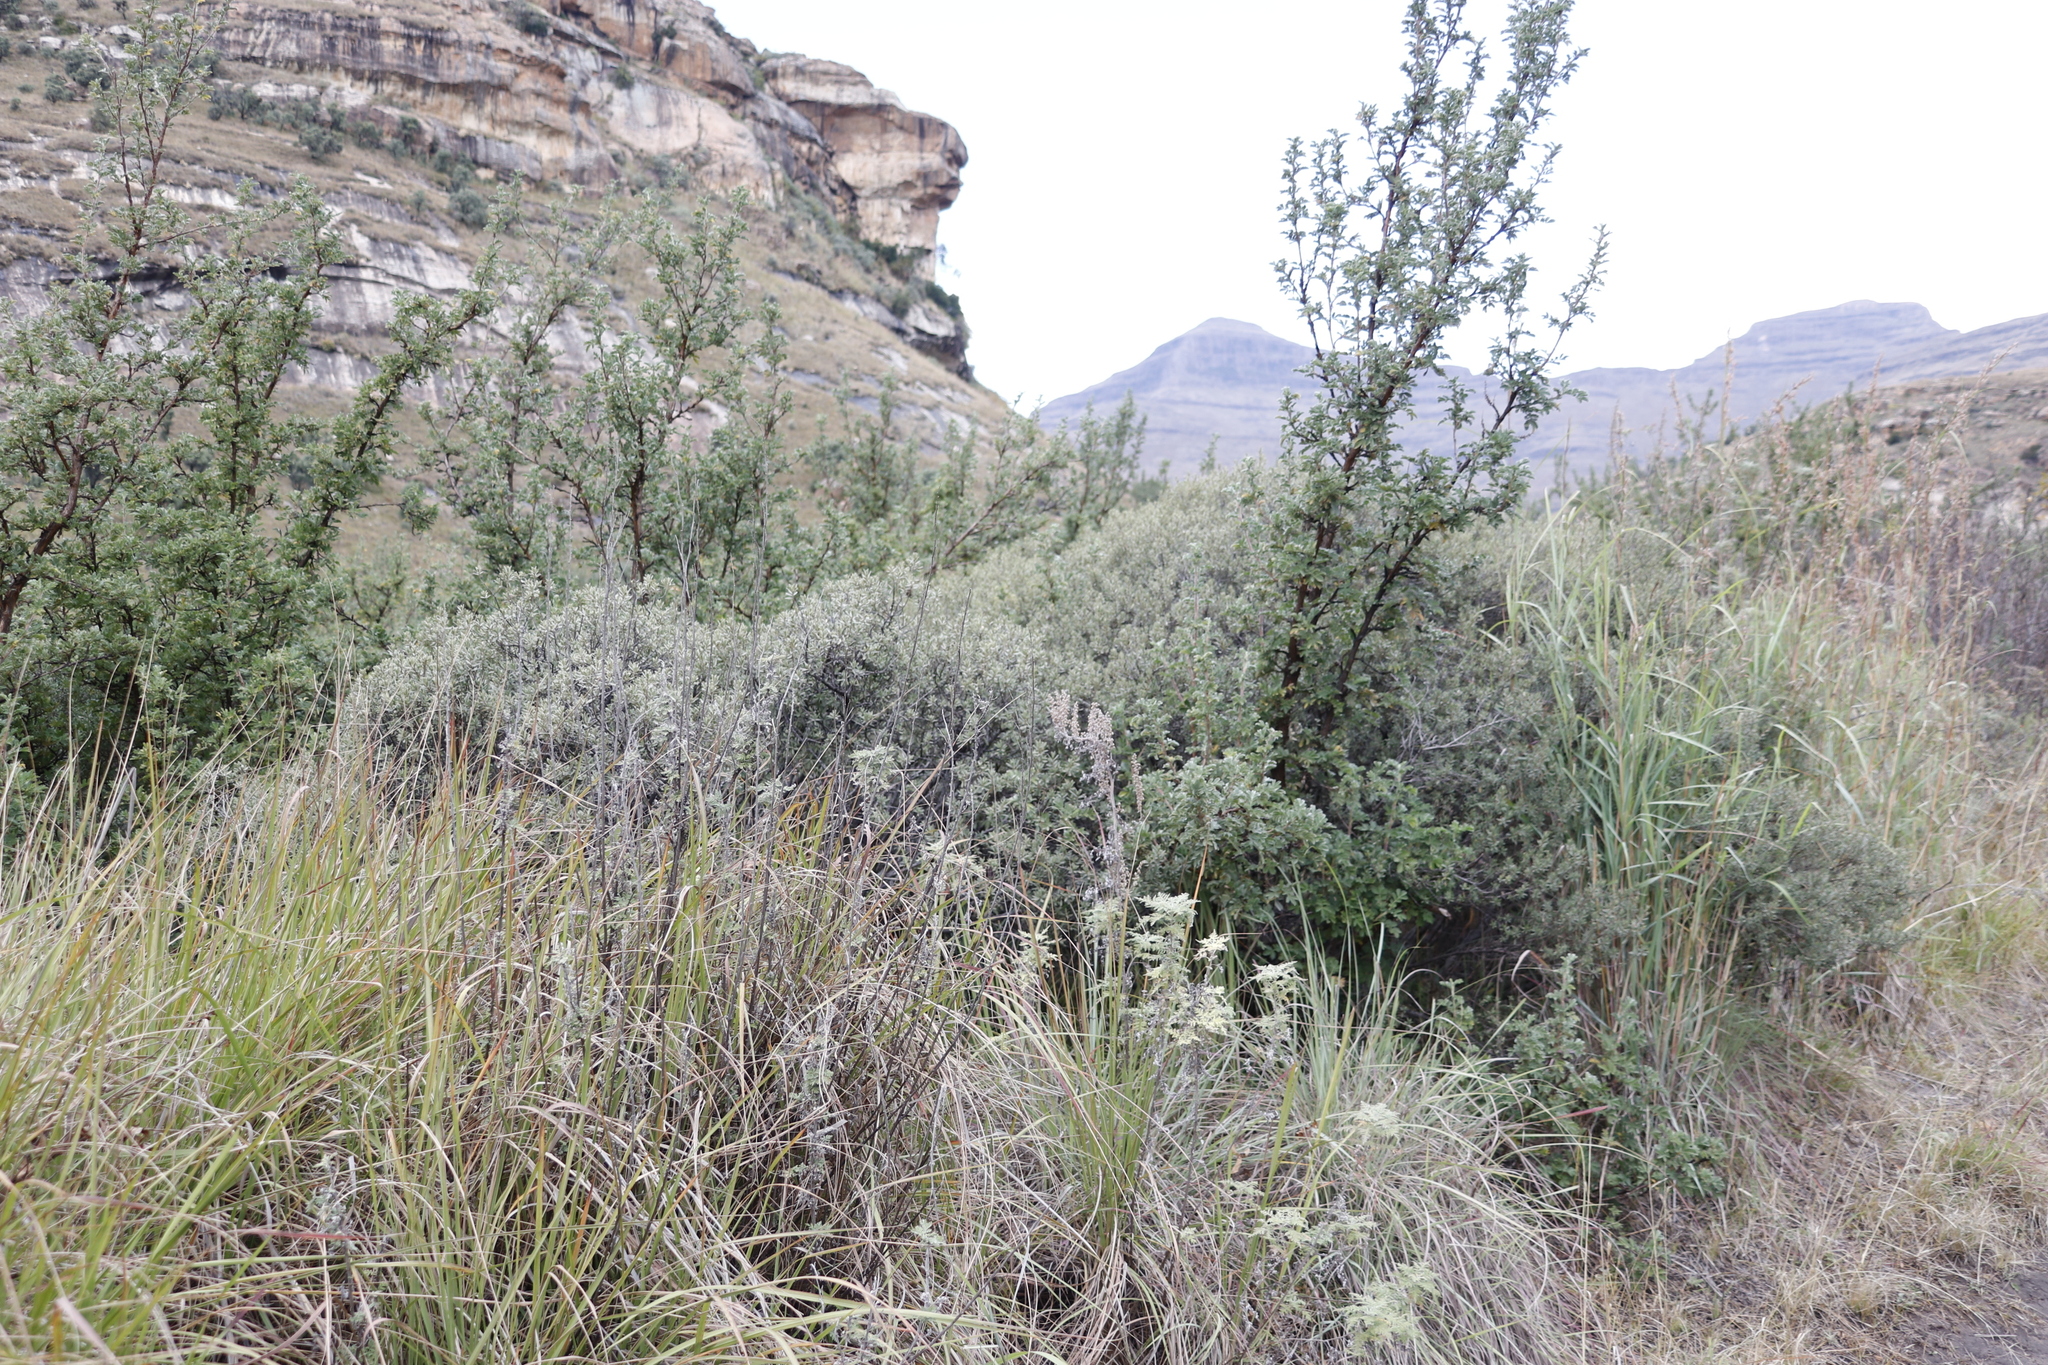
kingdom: Plantae
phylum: Tracheophyta
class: Magnoliopsida
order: Asterales
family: Asteraceae
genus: Artemisia
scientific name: Artemisia afra
